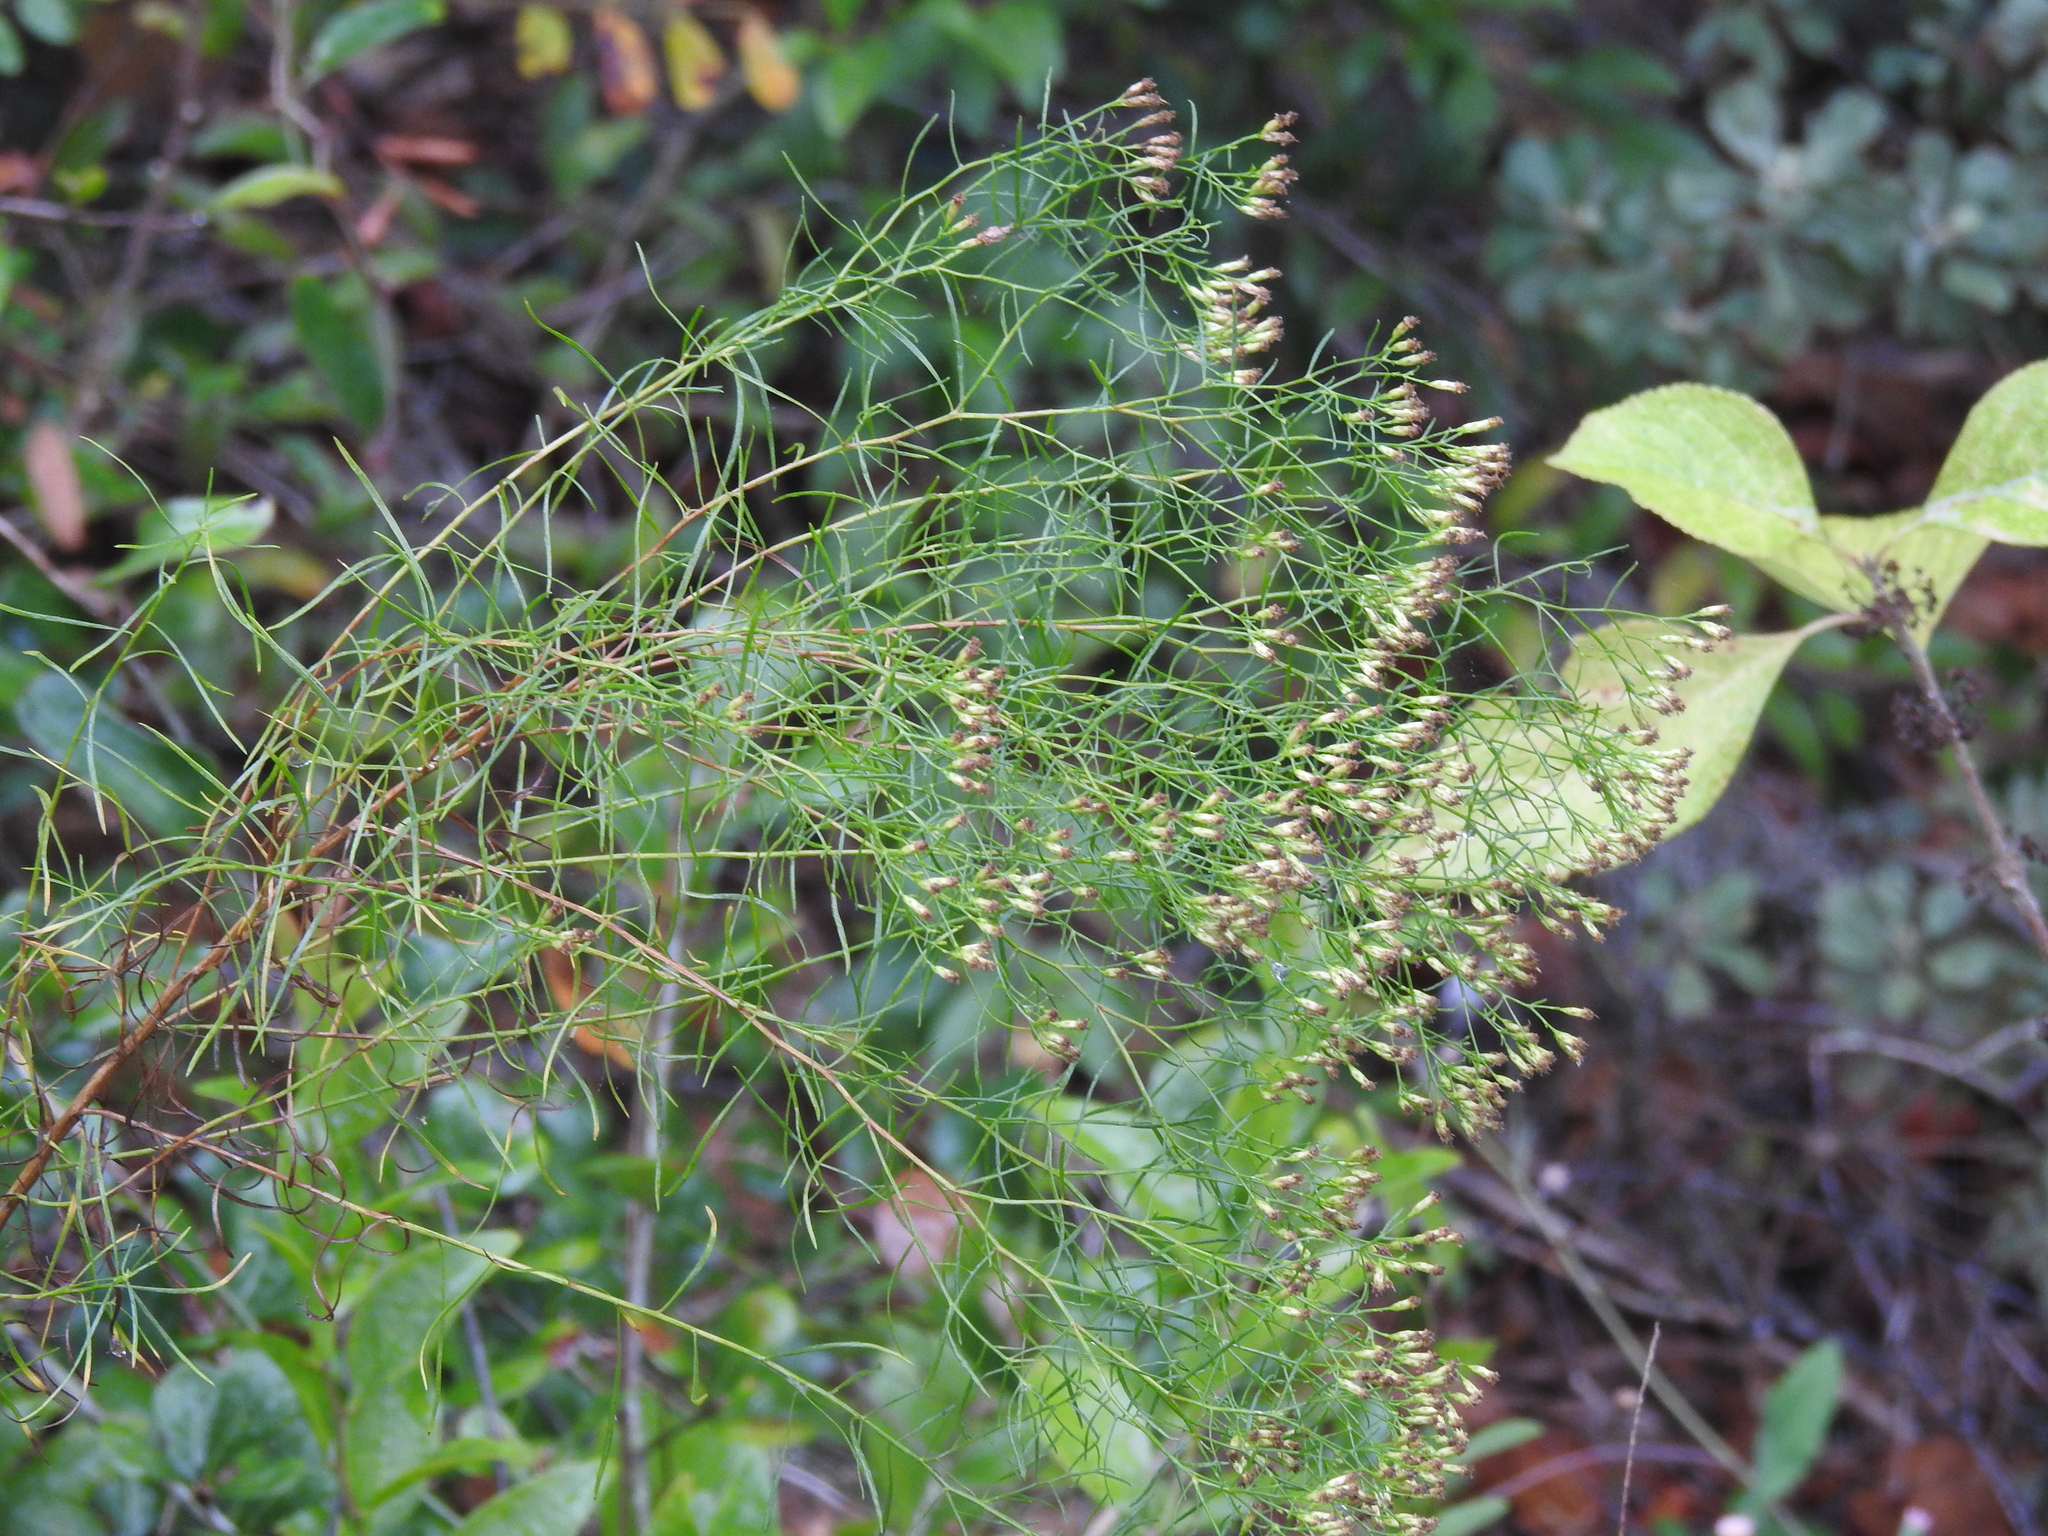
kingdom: Plantae
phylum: Tracheophyta
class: Magnoliopsida
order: Asterales
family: Asteraceae
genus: Euthamia
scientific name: Euthamia caroliniana
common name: Coastal plain goldentop
